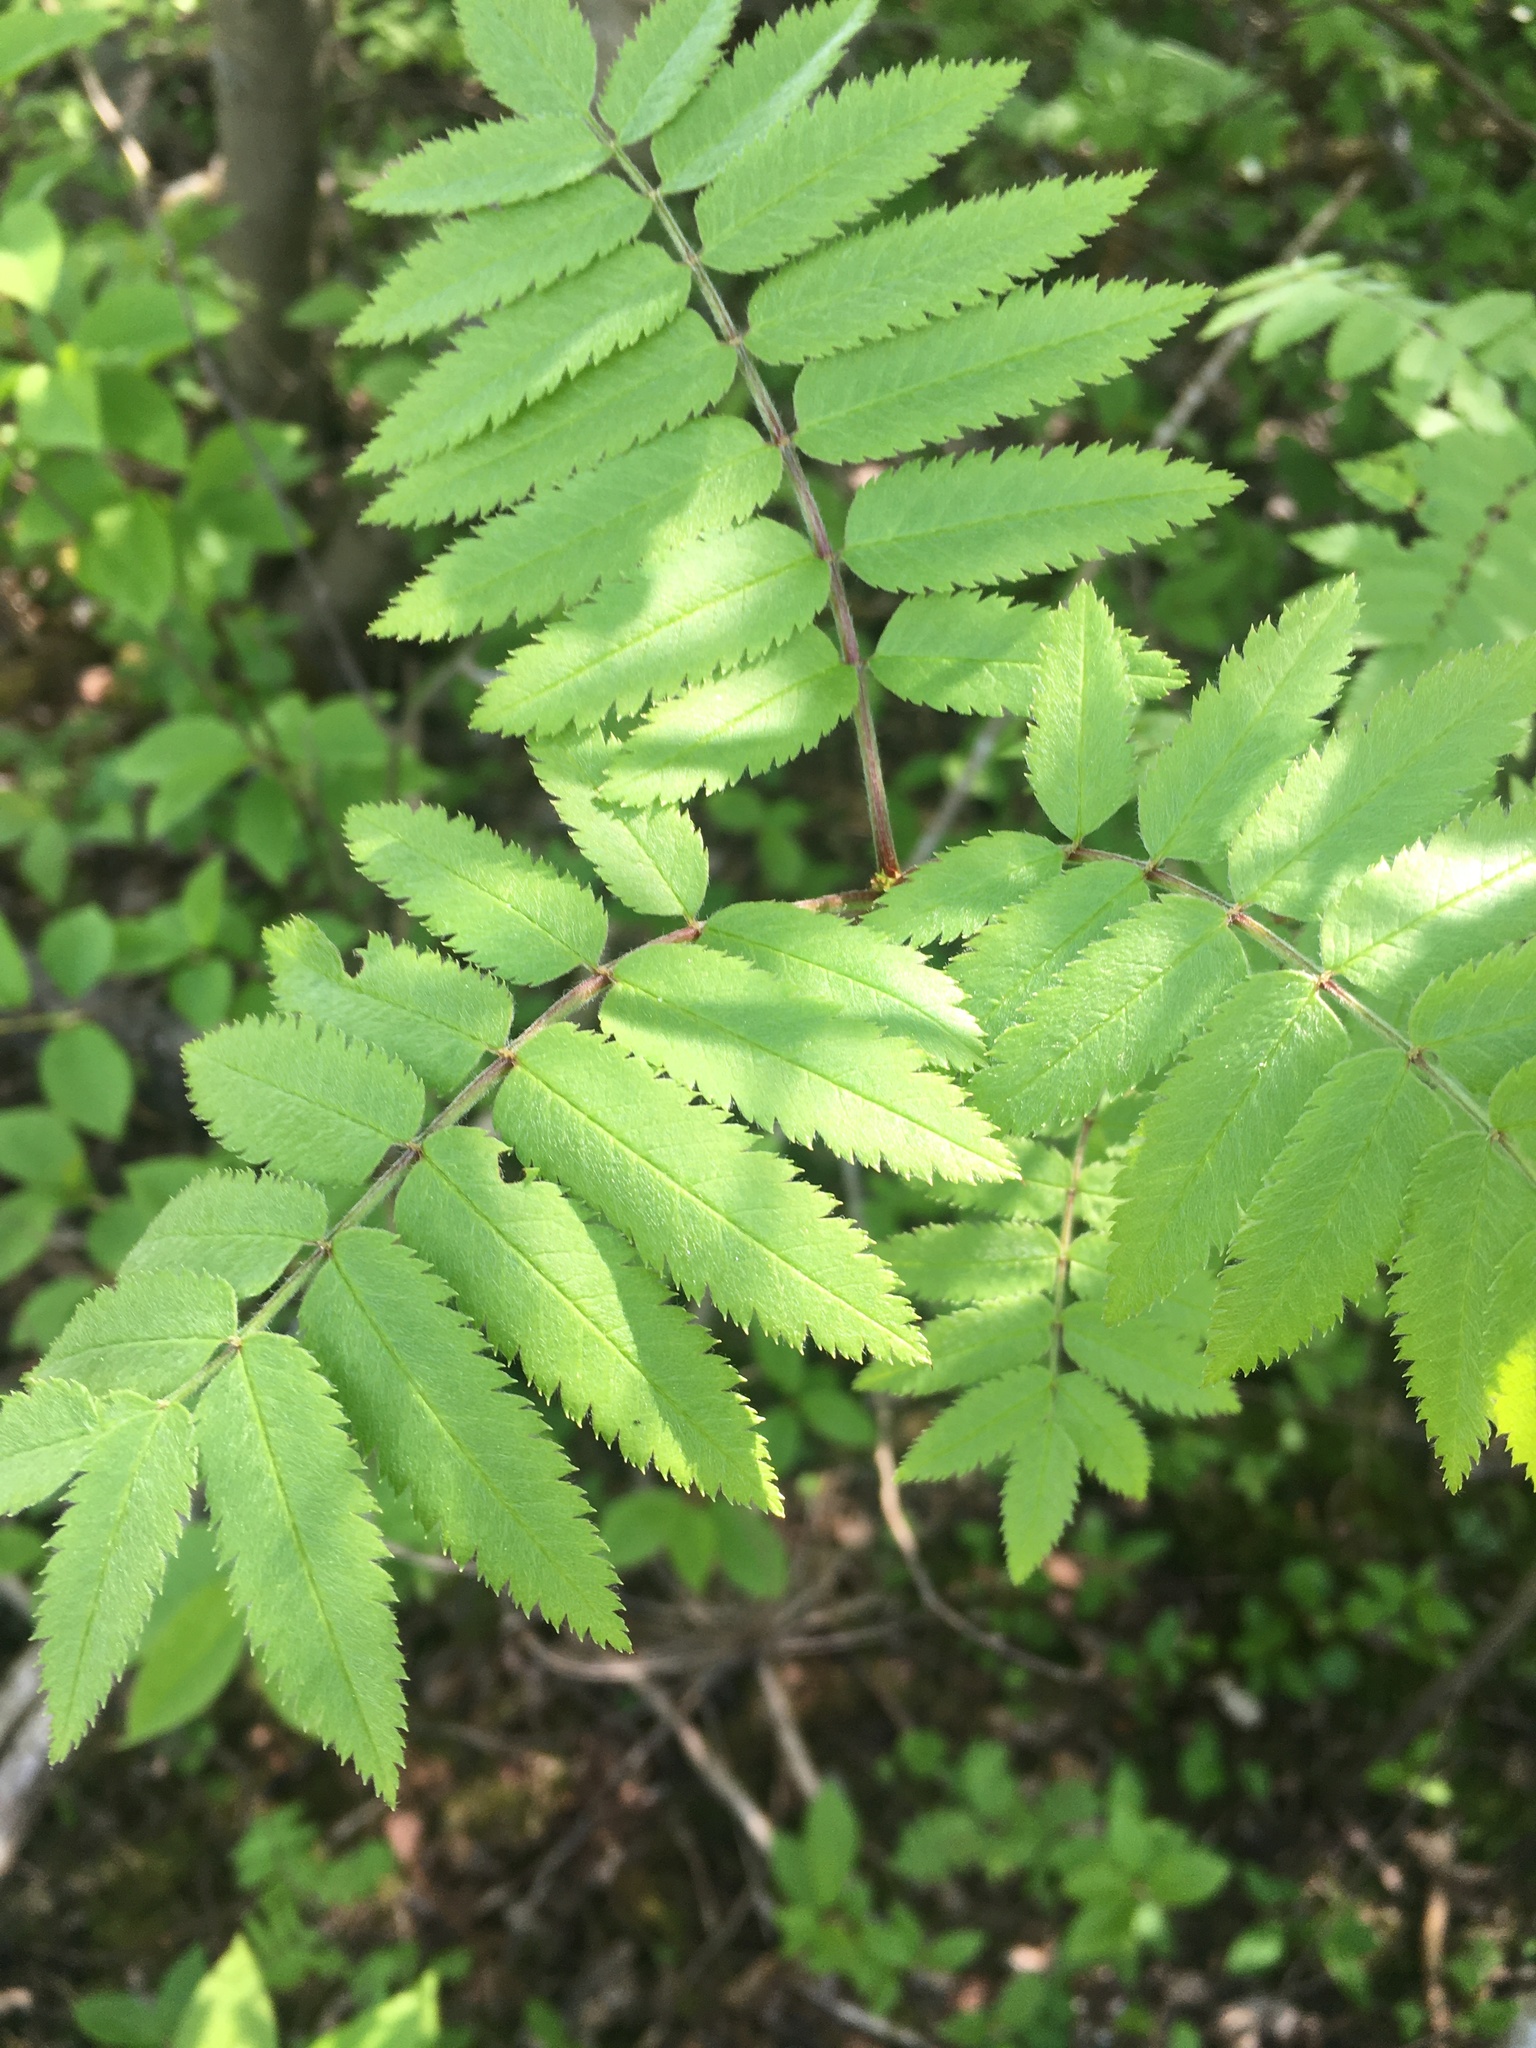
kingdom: Plantae
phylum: Tracheophyta
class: Magnoliopsida
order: Rosales
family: Rosaceae
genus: Sorbus
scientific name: Sorbus aucuparia
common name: Rowan
